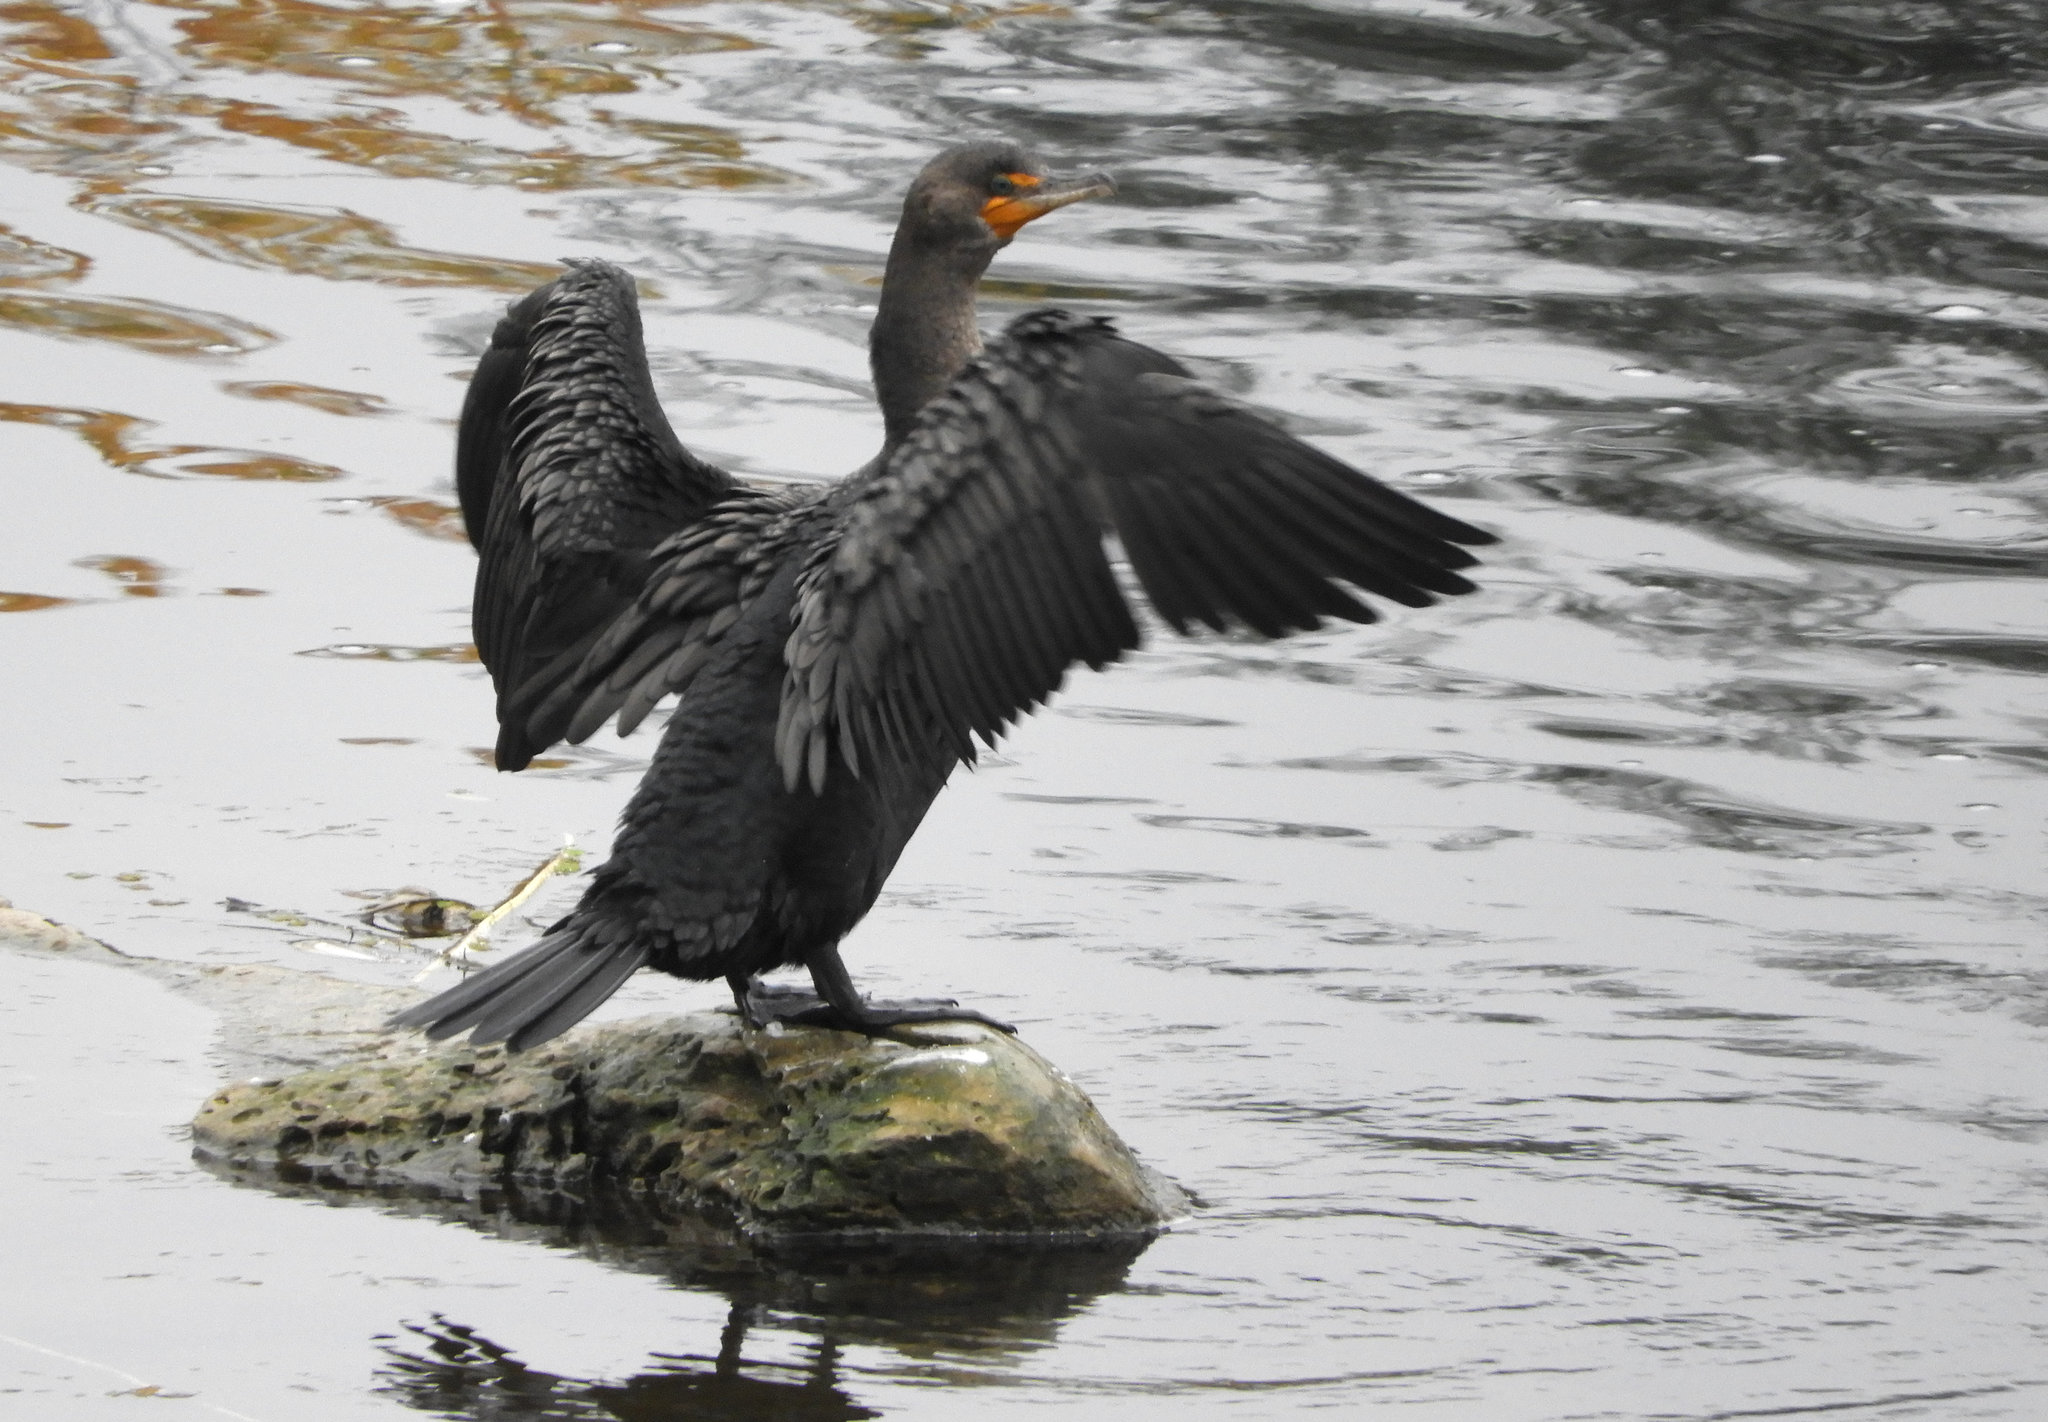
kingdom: Animalia
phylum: Chordata
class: Aves
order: Suliformes
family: Phalacrocoracidae
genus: Phalacrocorax
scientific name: Phalacrocorax auritus
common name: Double-crested cormorant
